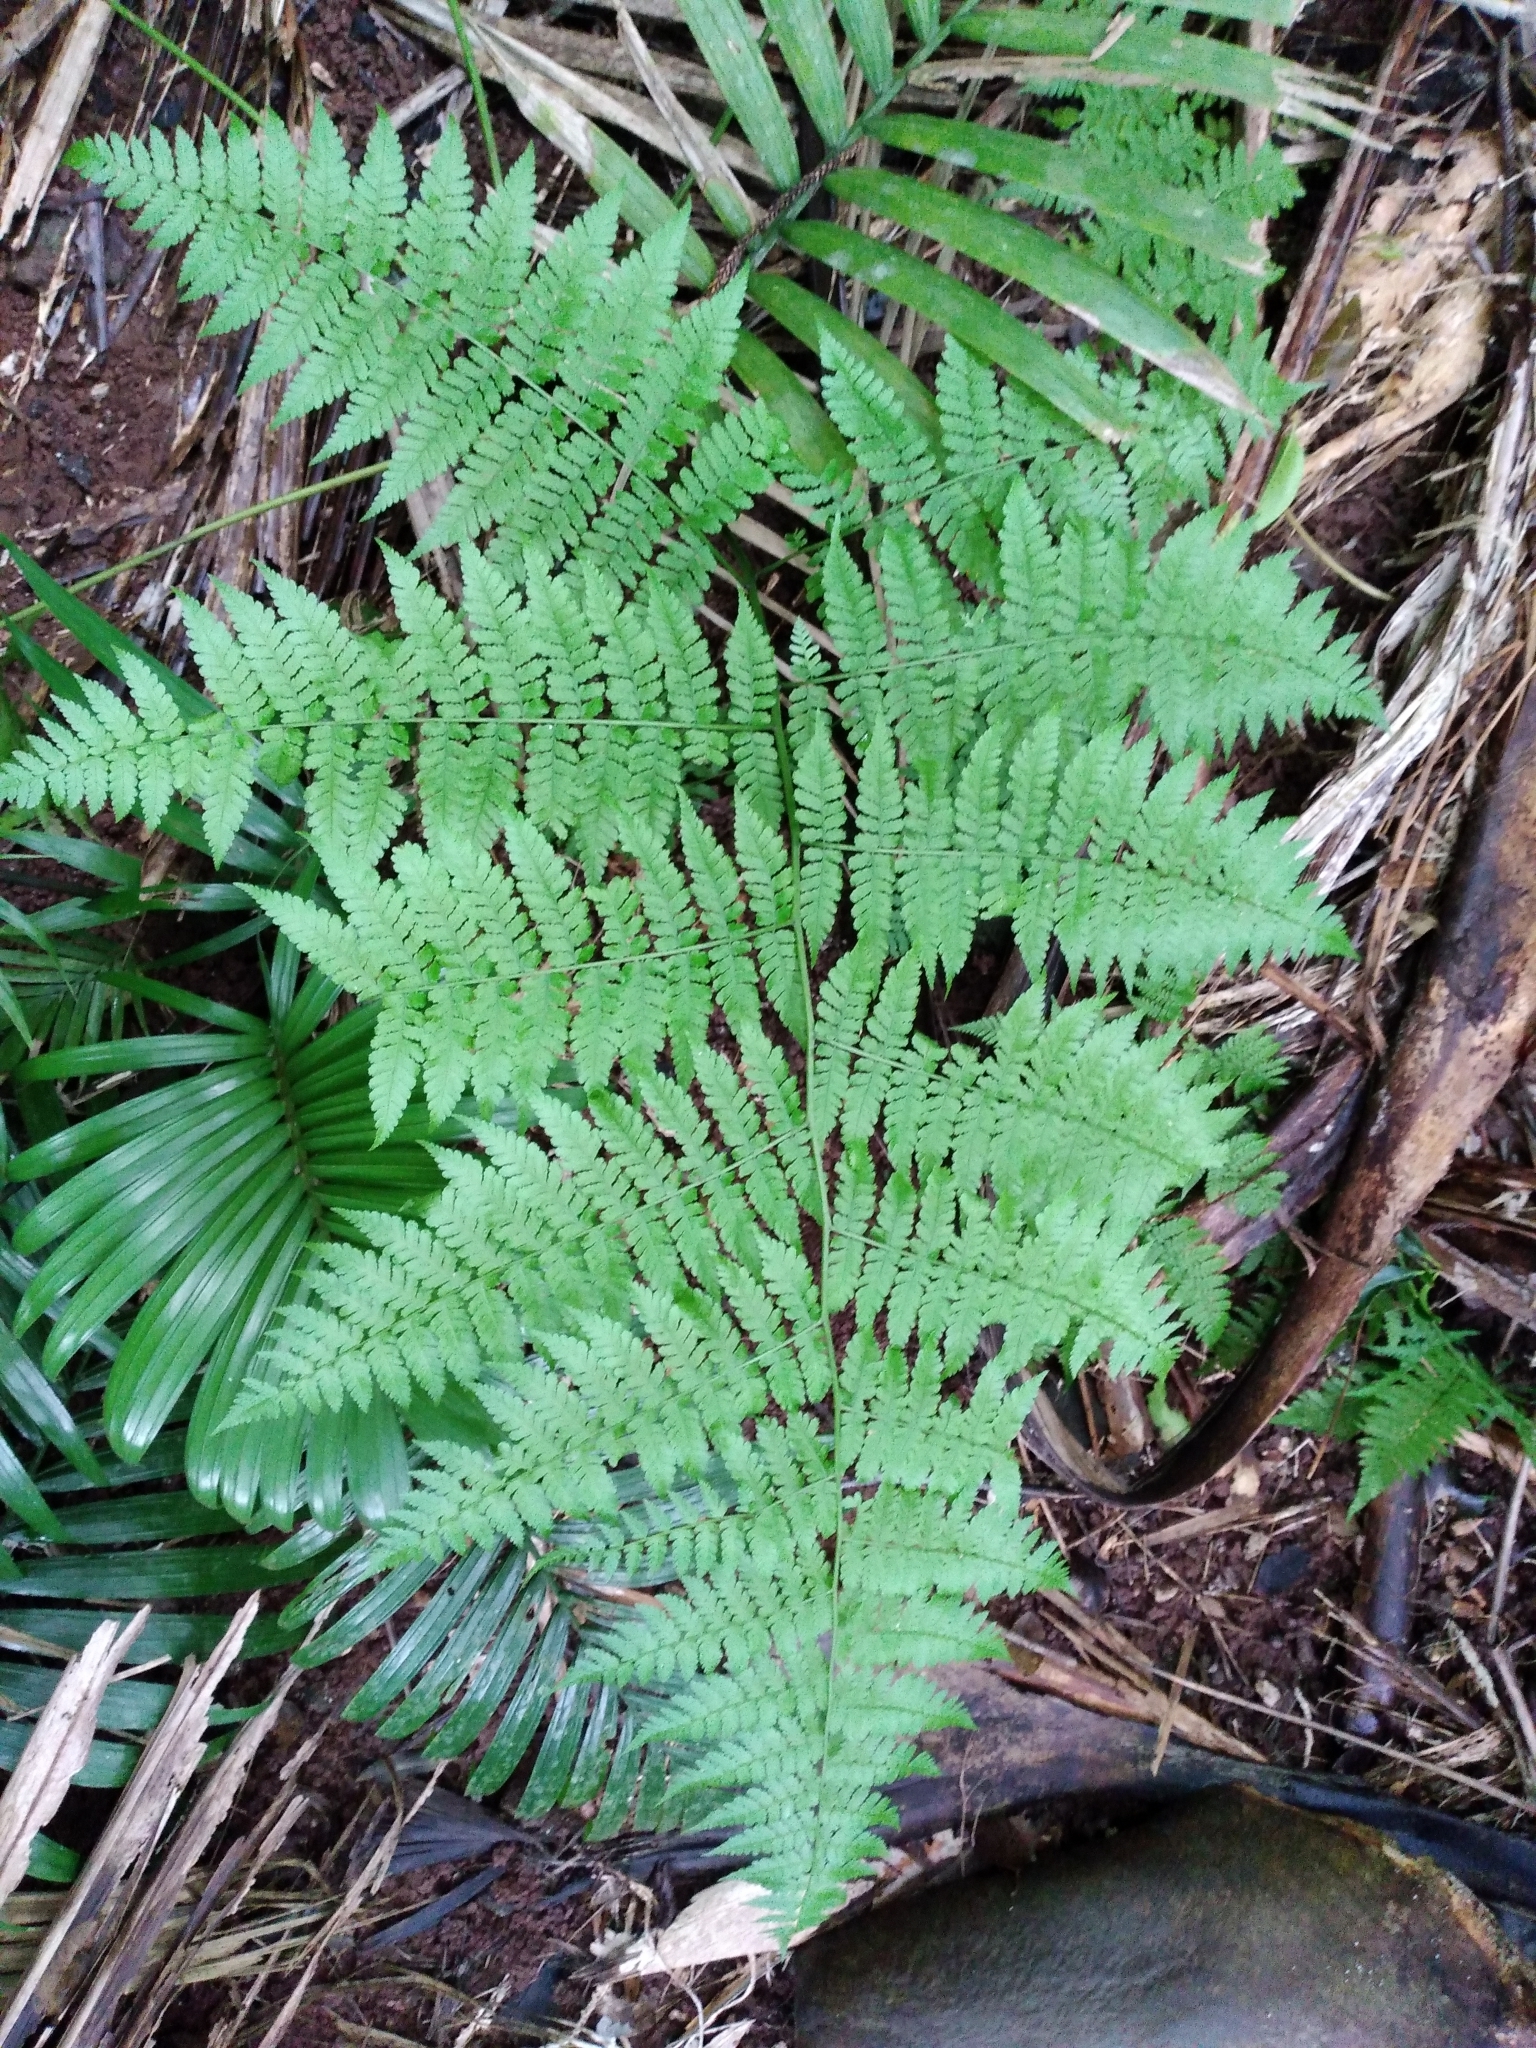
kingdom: Plantae
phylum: Tracheophyta
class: Polypodiopsida
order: Polypodiales
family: Athyriaceae
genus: Diplazium
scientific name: Diplazium australe
